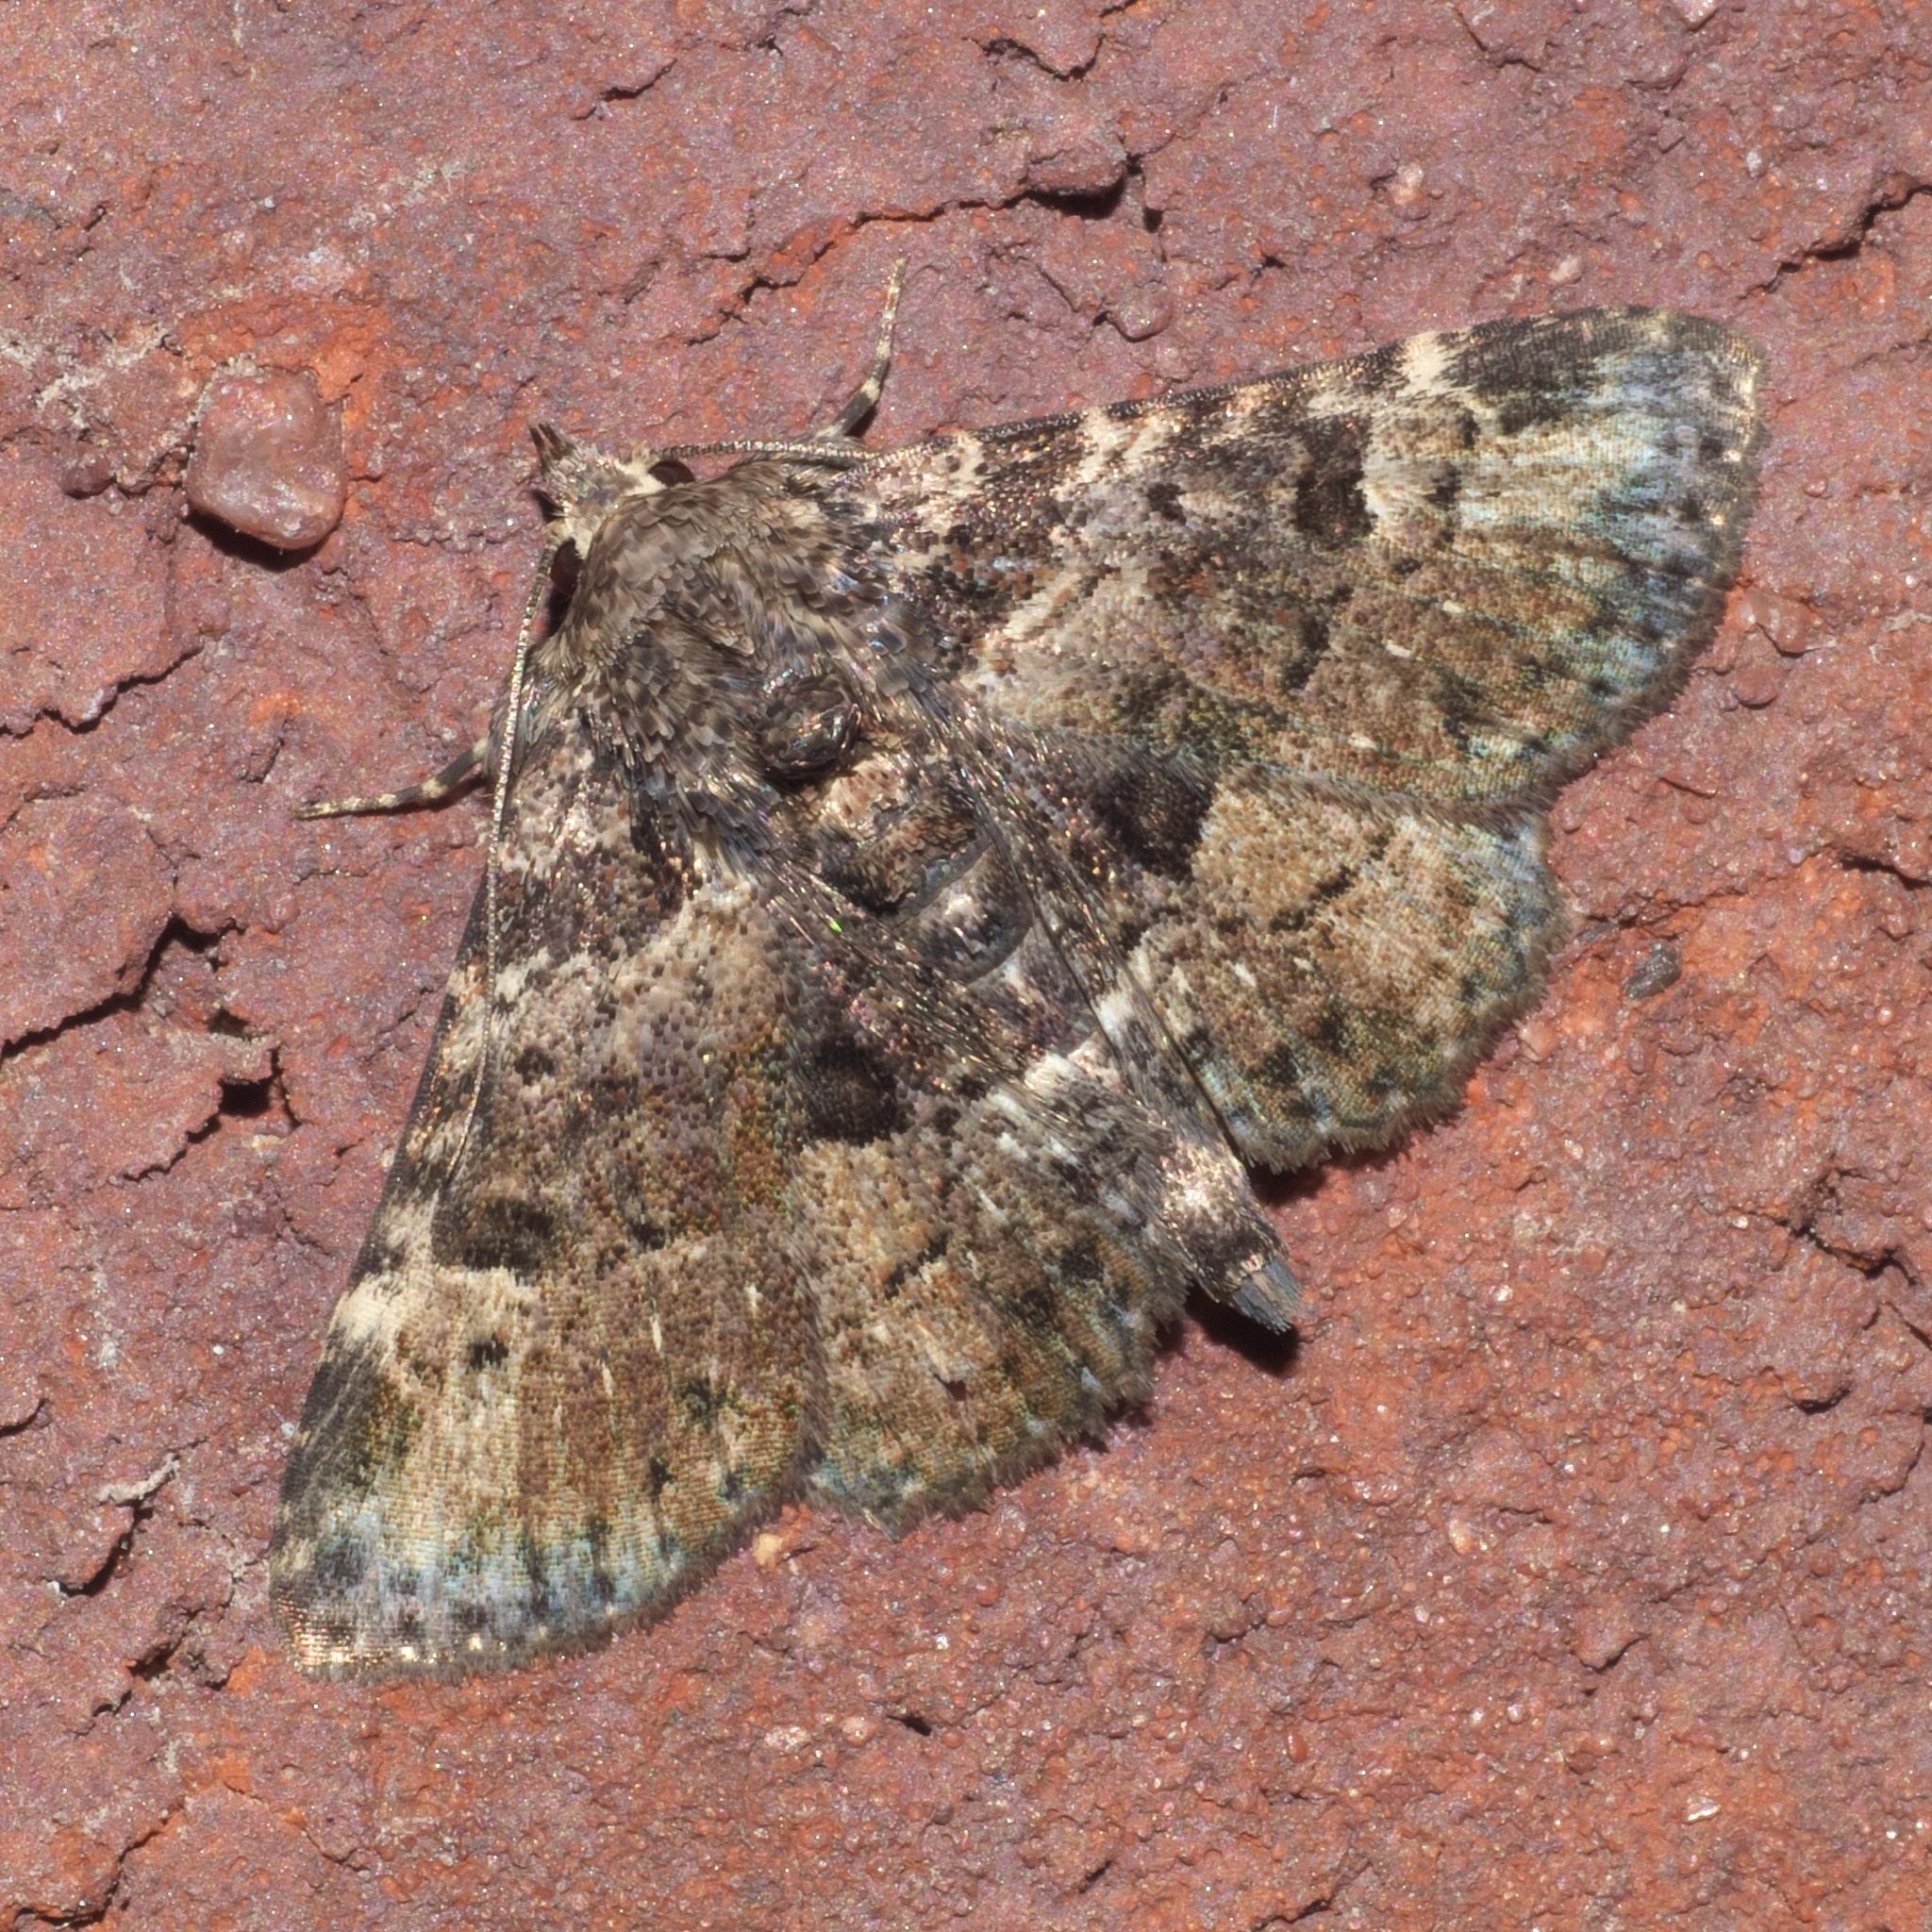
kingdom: Animalia
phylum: Arthropoda
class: Insecta
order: Lepidoptera
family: Erebidae
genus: Metalectra
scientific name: Metalectra discalis
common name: Common fungus moth
